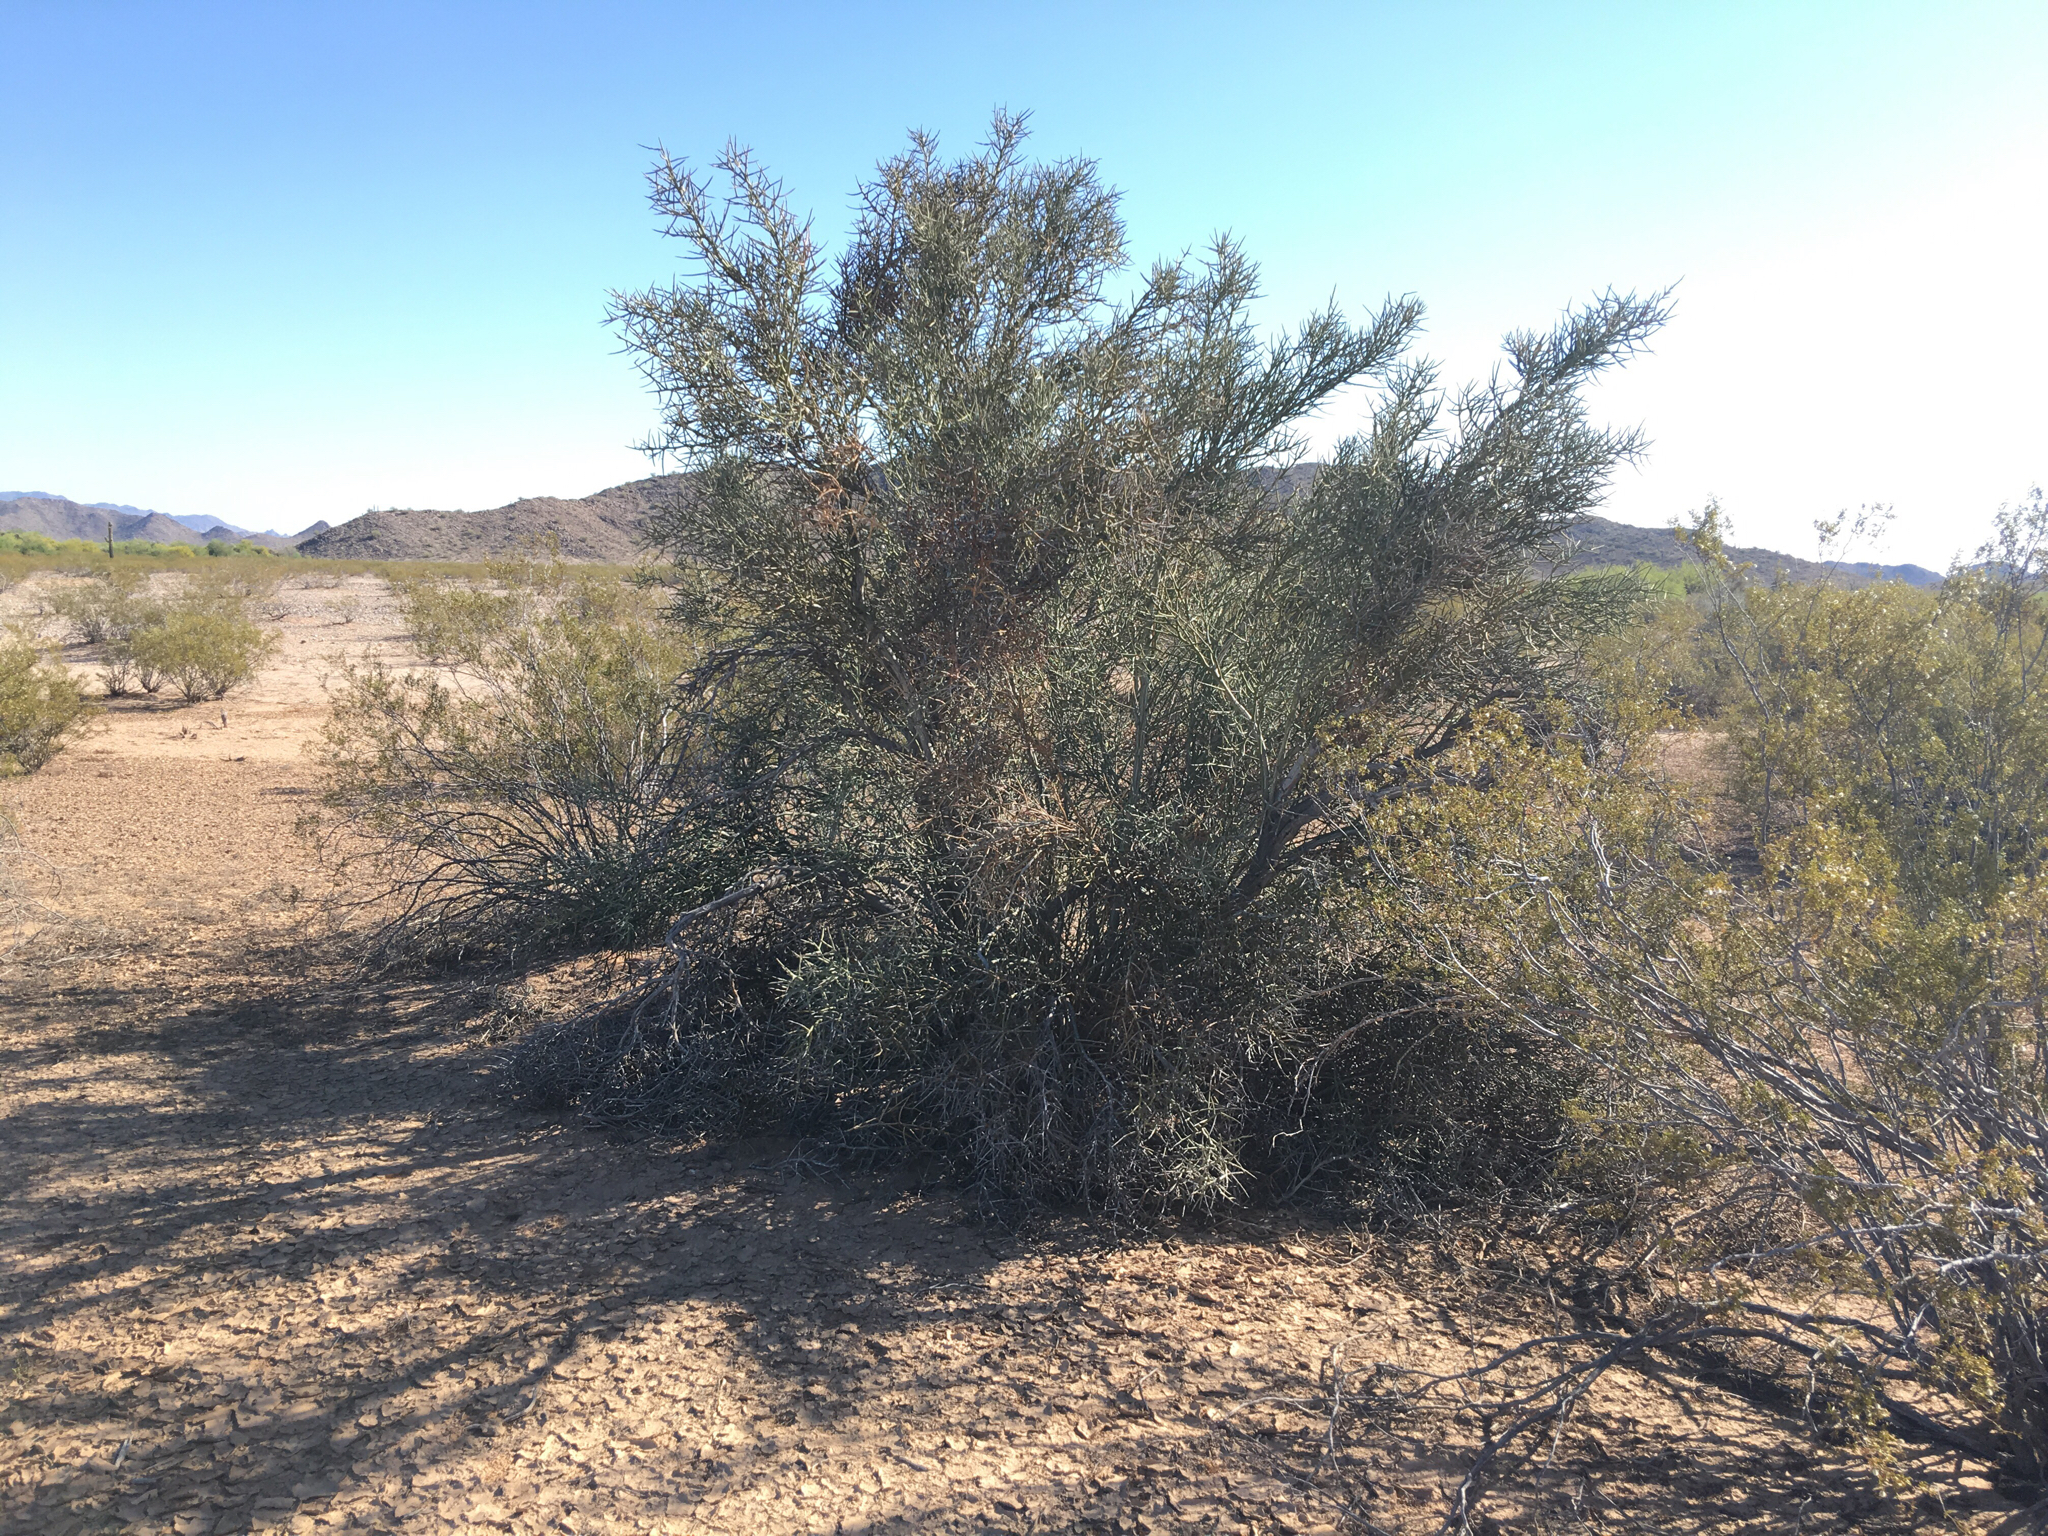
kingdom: Plantae
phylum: Tracheophyta
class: Magnoliopsida
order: Sapindales
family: Simaroubaceae
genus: Holacantha
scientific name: Holacantha emoryi
